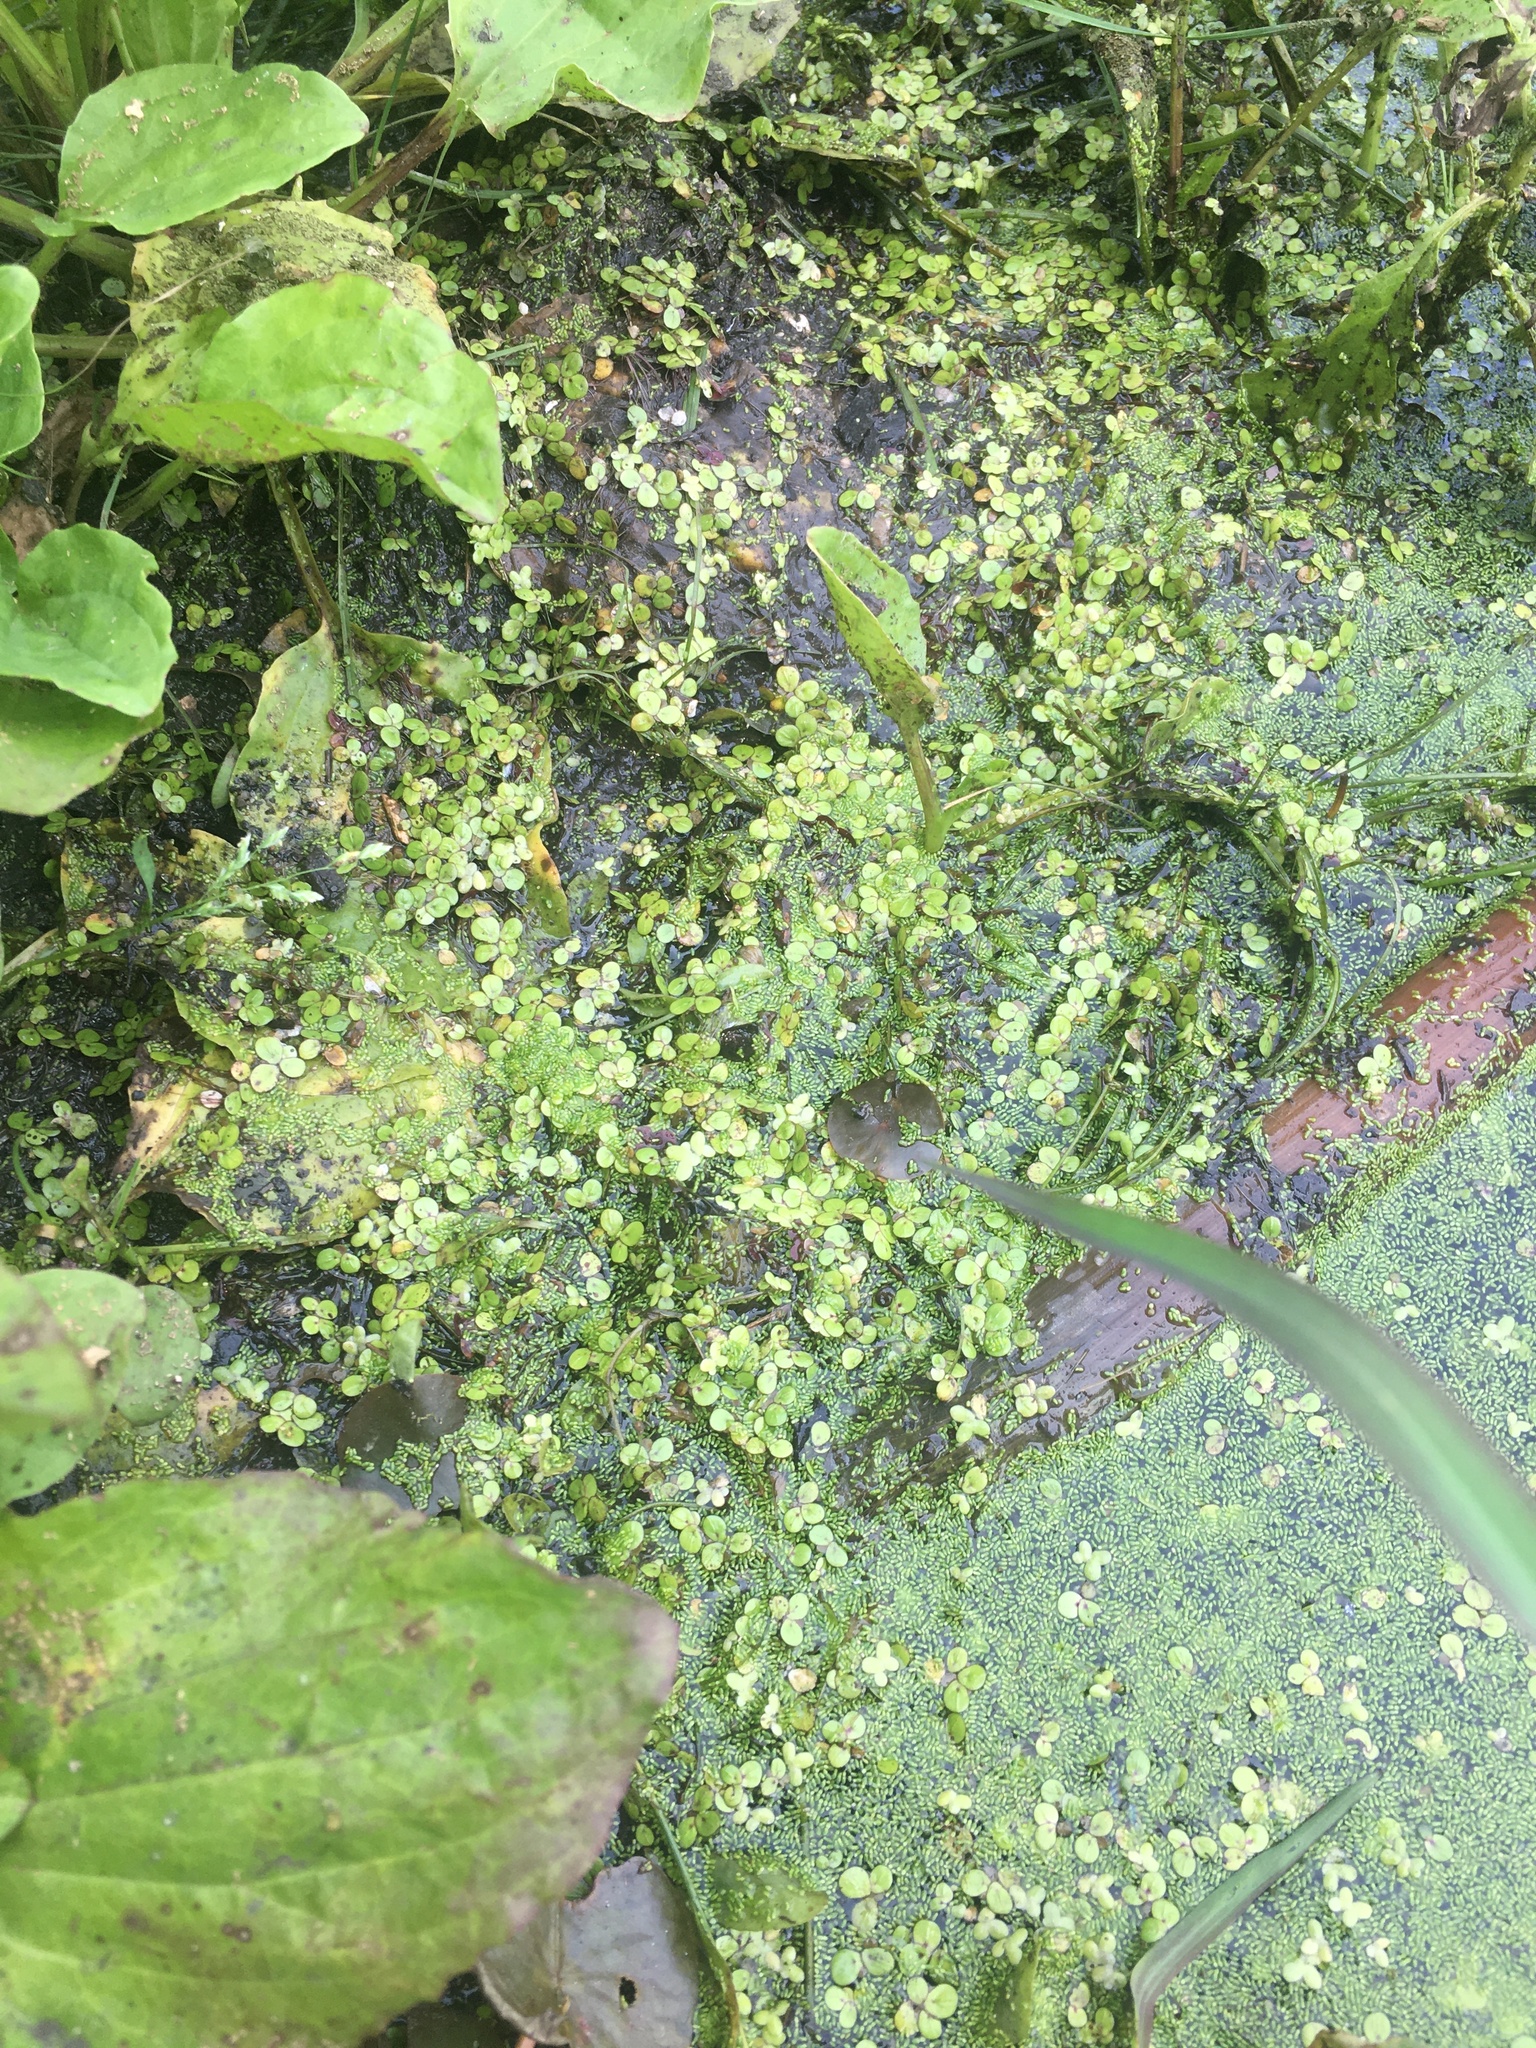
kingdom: Plantae
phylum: Tracheophyta
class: Liliopsida
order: Alismatales
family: Araceae
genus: Spirodela
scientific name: Spirodela polyrhiza
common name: Great duckweed
